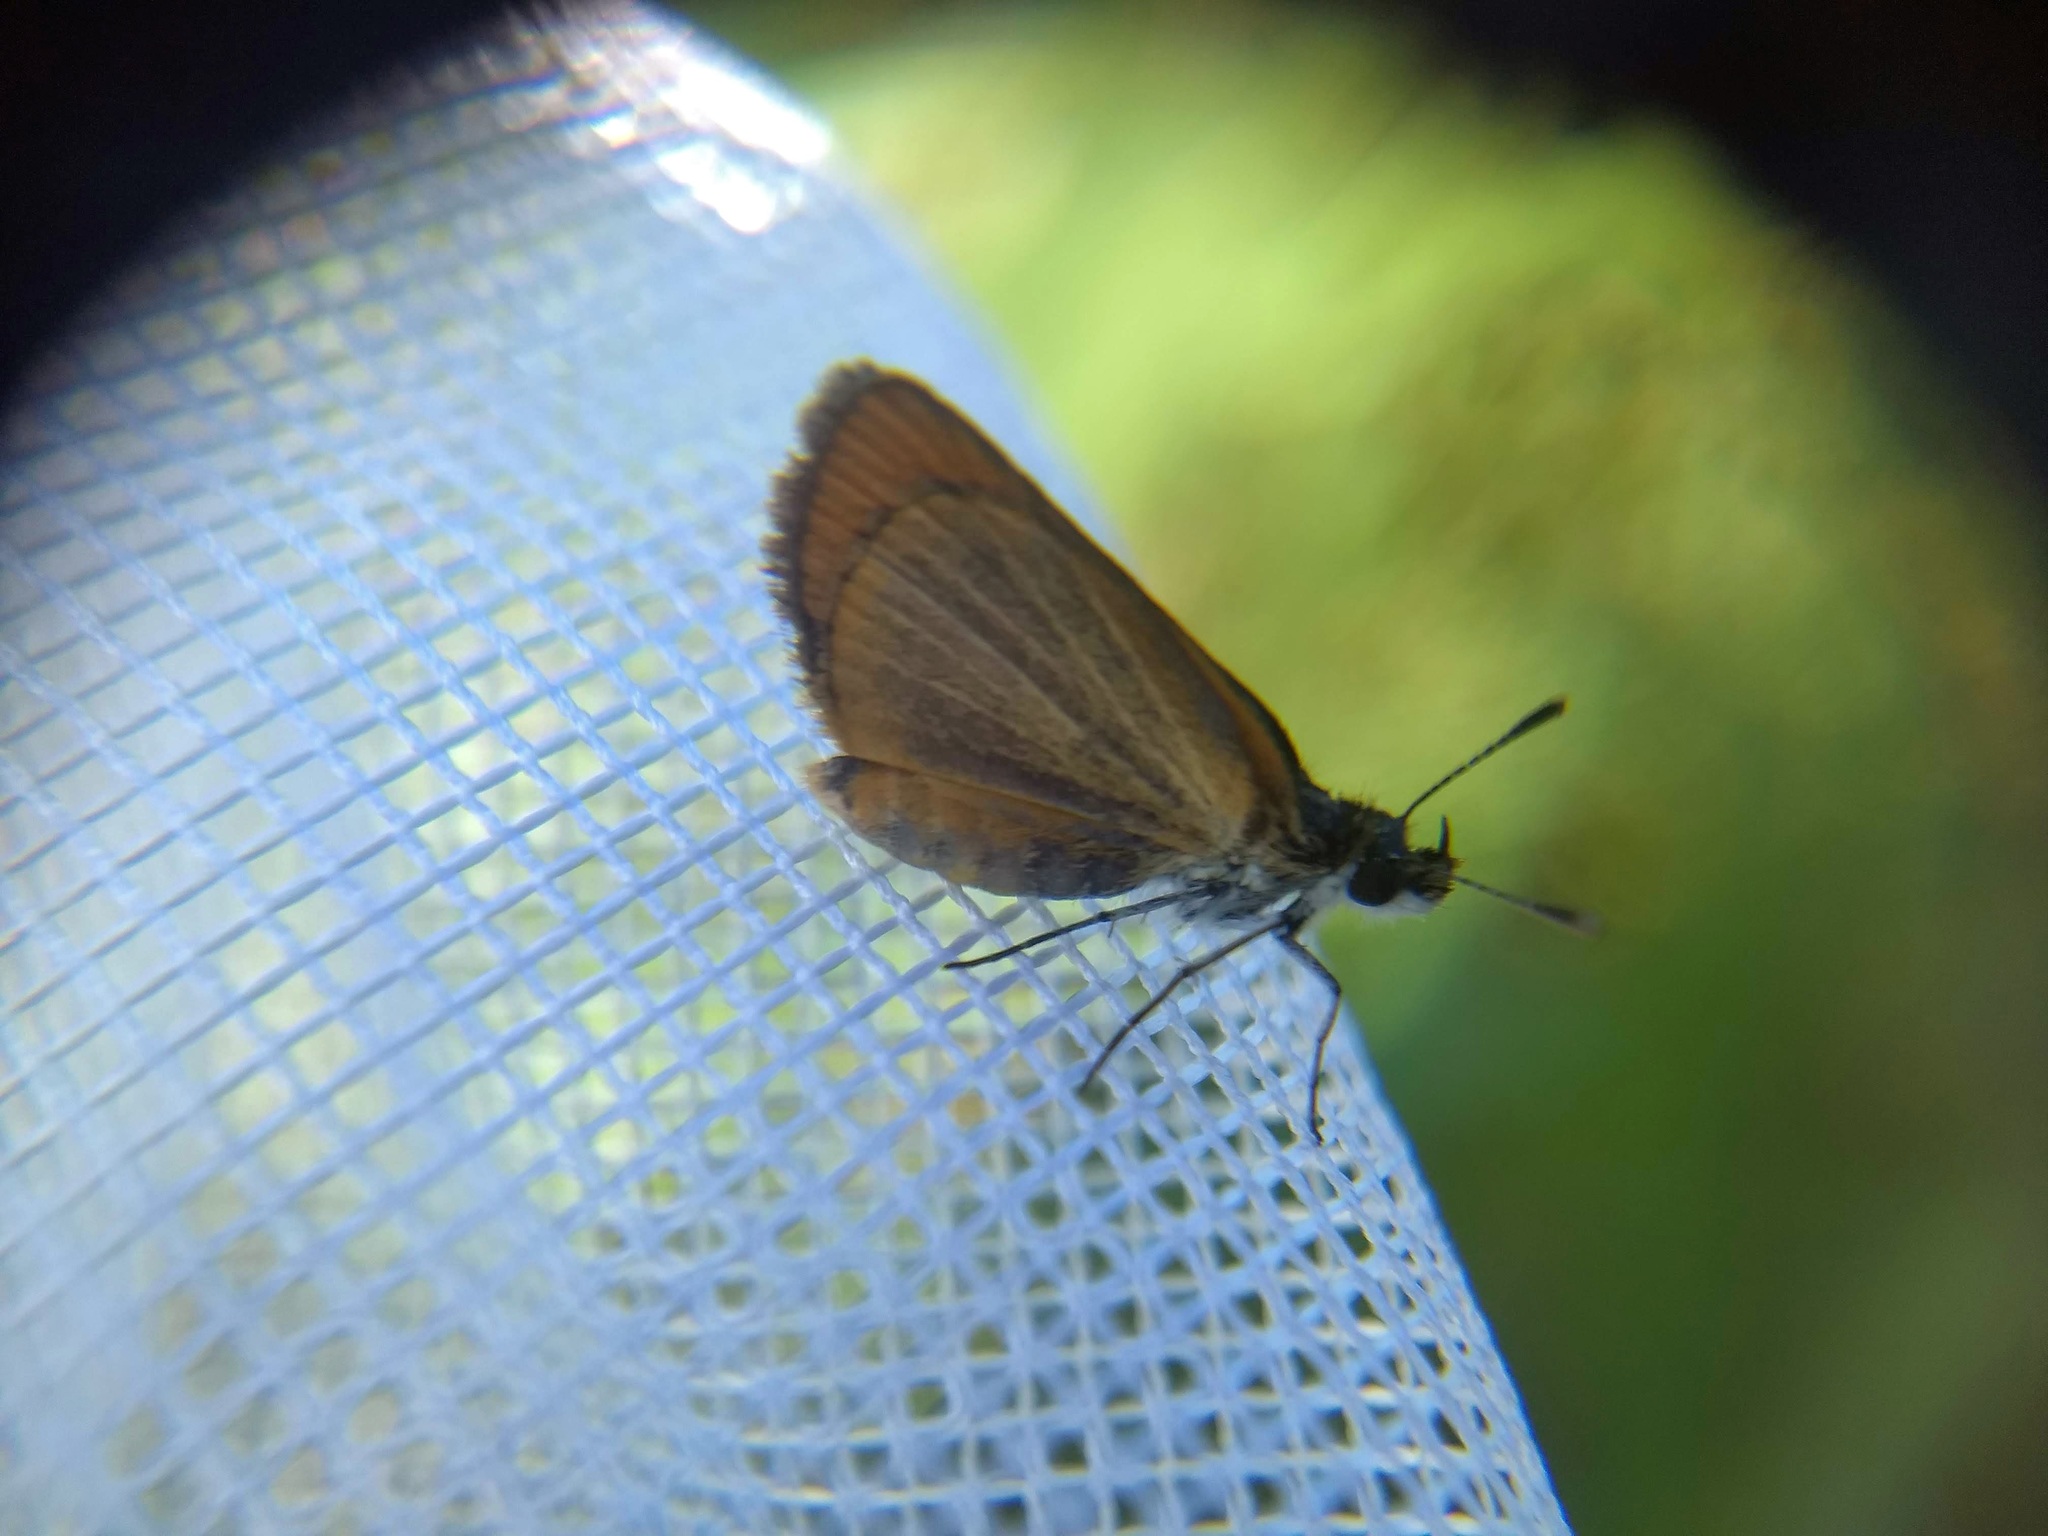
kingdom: Animalia
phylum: Arthropoda
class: Insecta
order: Lepidoptera
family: Hesperiidae
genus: Ancyloxypha
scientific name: Ancyloxypha numitor
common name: Least skipper
